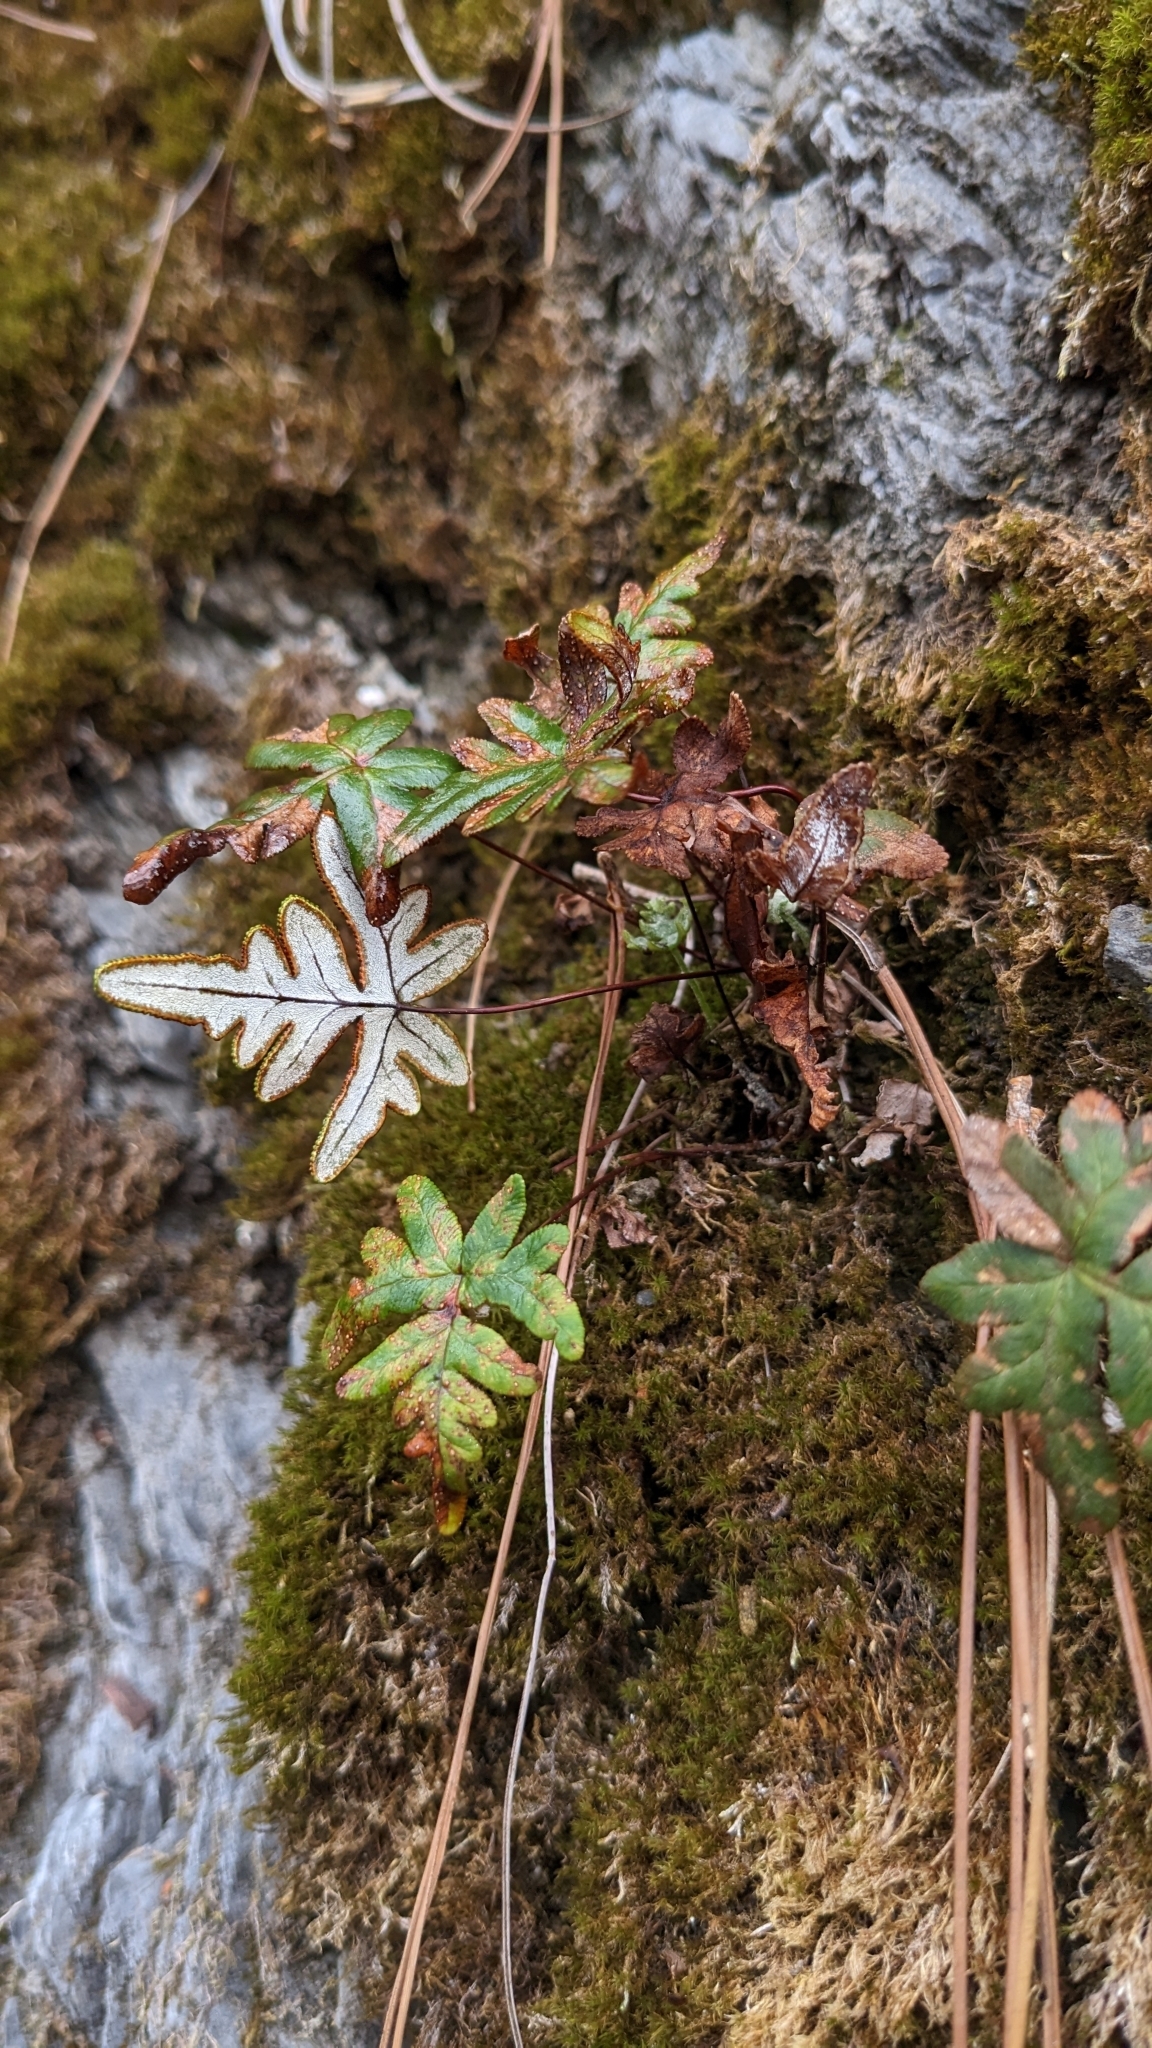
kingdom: Plantae
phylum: Tracheophyta
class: Polypodiopsida
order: Polypodiales
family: Pteridaceae
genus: Aleuritopteris
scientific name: Aleuritopteris argentea
